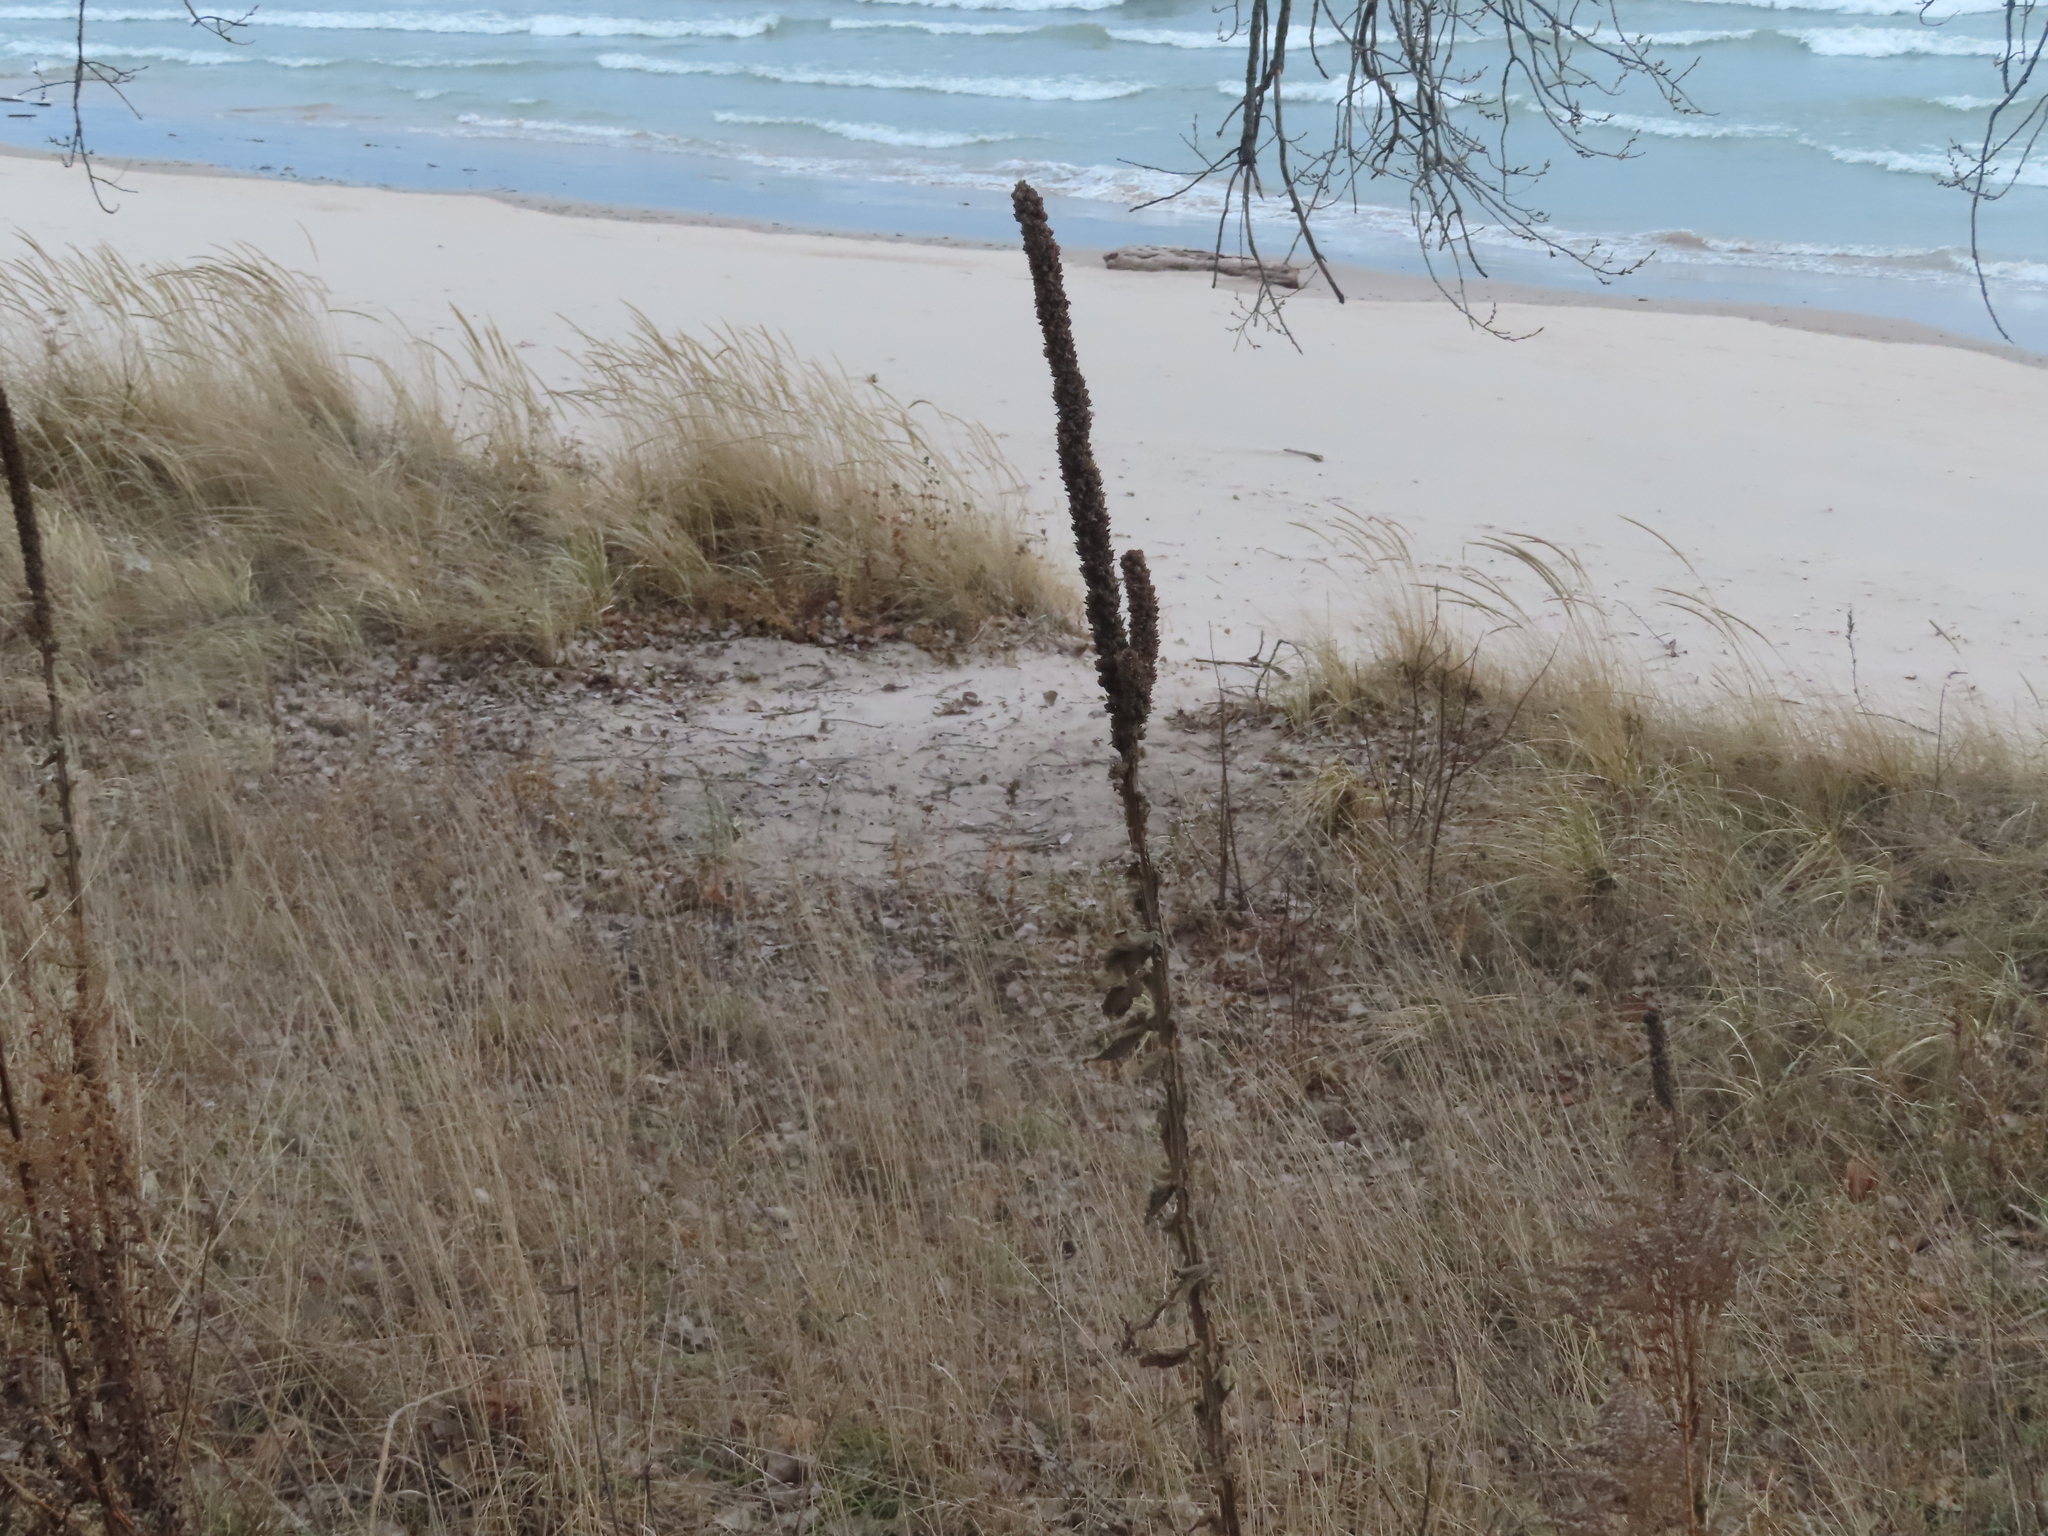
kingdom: Plantae
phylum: Tracheophyta
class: Magnoliopsida
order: Lamiales
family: Scrophulariaceae
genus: Verbascum
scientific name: Verbascum thapsus
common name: Common mullein
